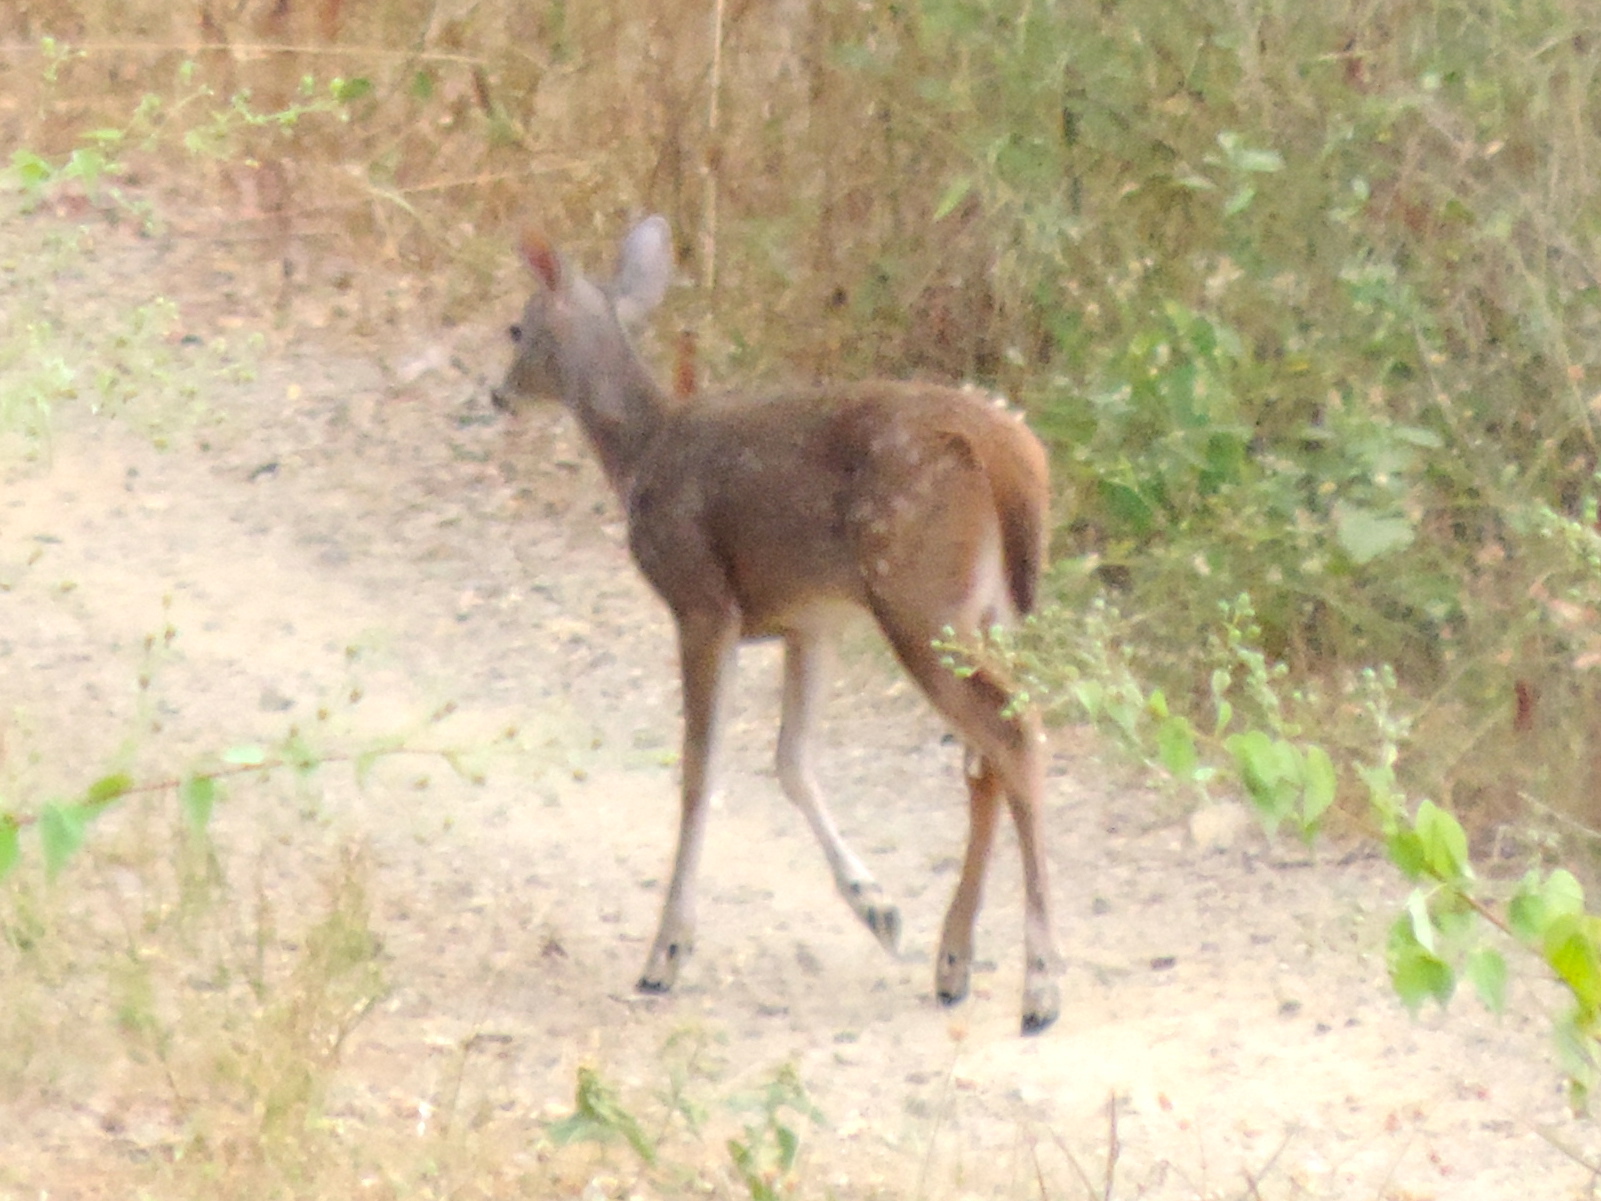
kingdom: Animalia
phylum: Chordata
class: Mammalia
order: Artiodactyla
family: Cervidae
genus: Odocoileus
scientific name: Odocoileus virginianus
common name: White-tailed deer
